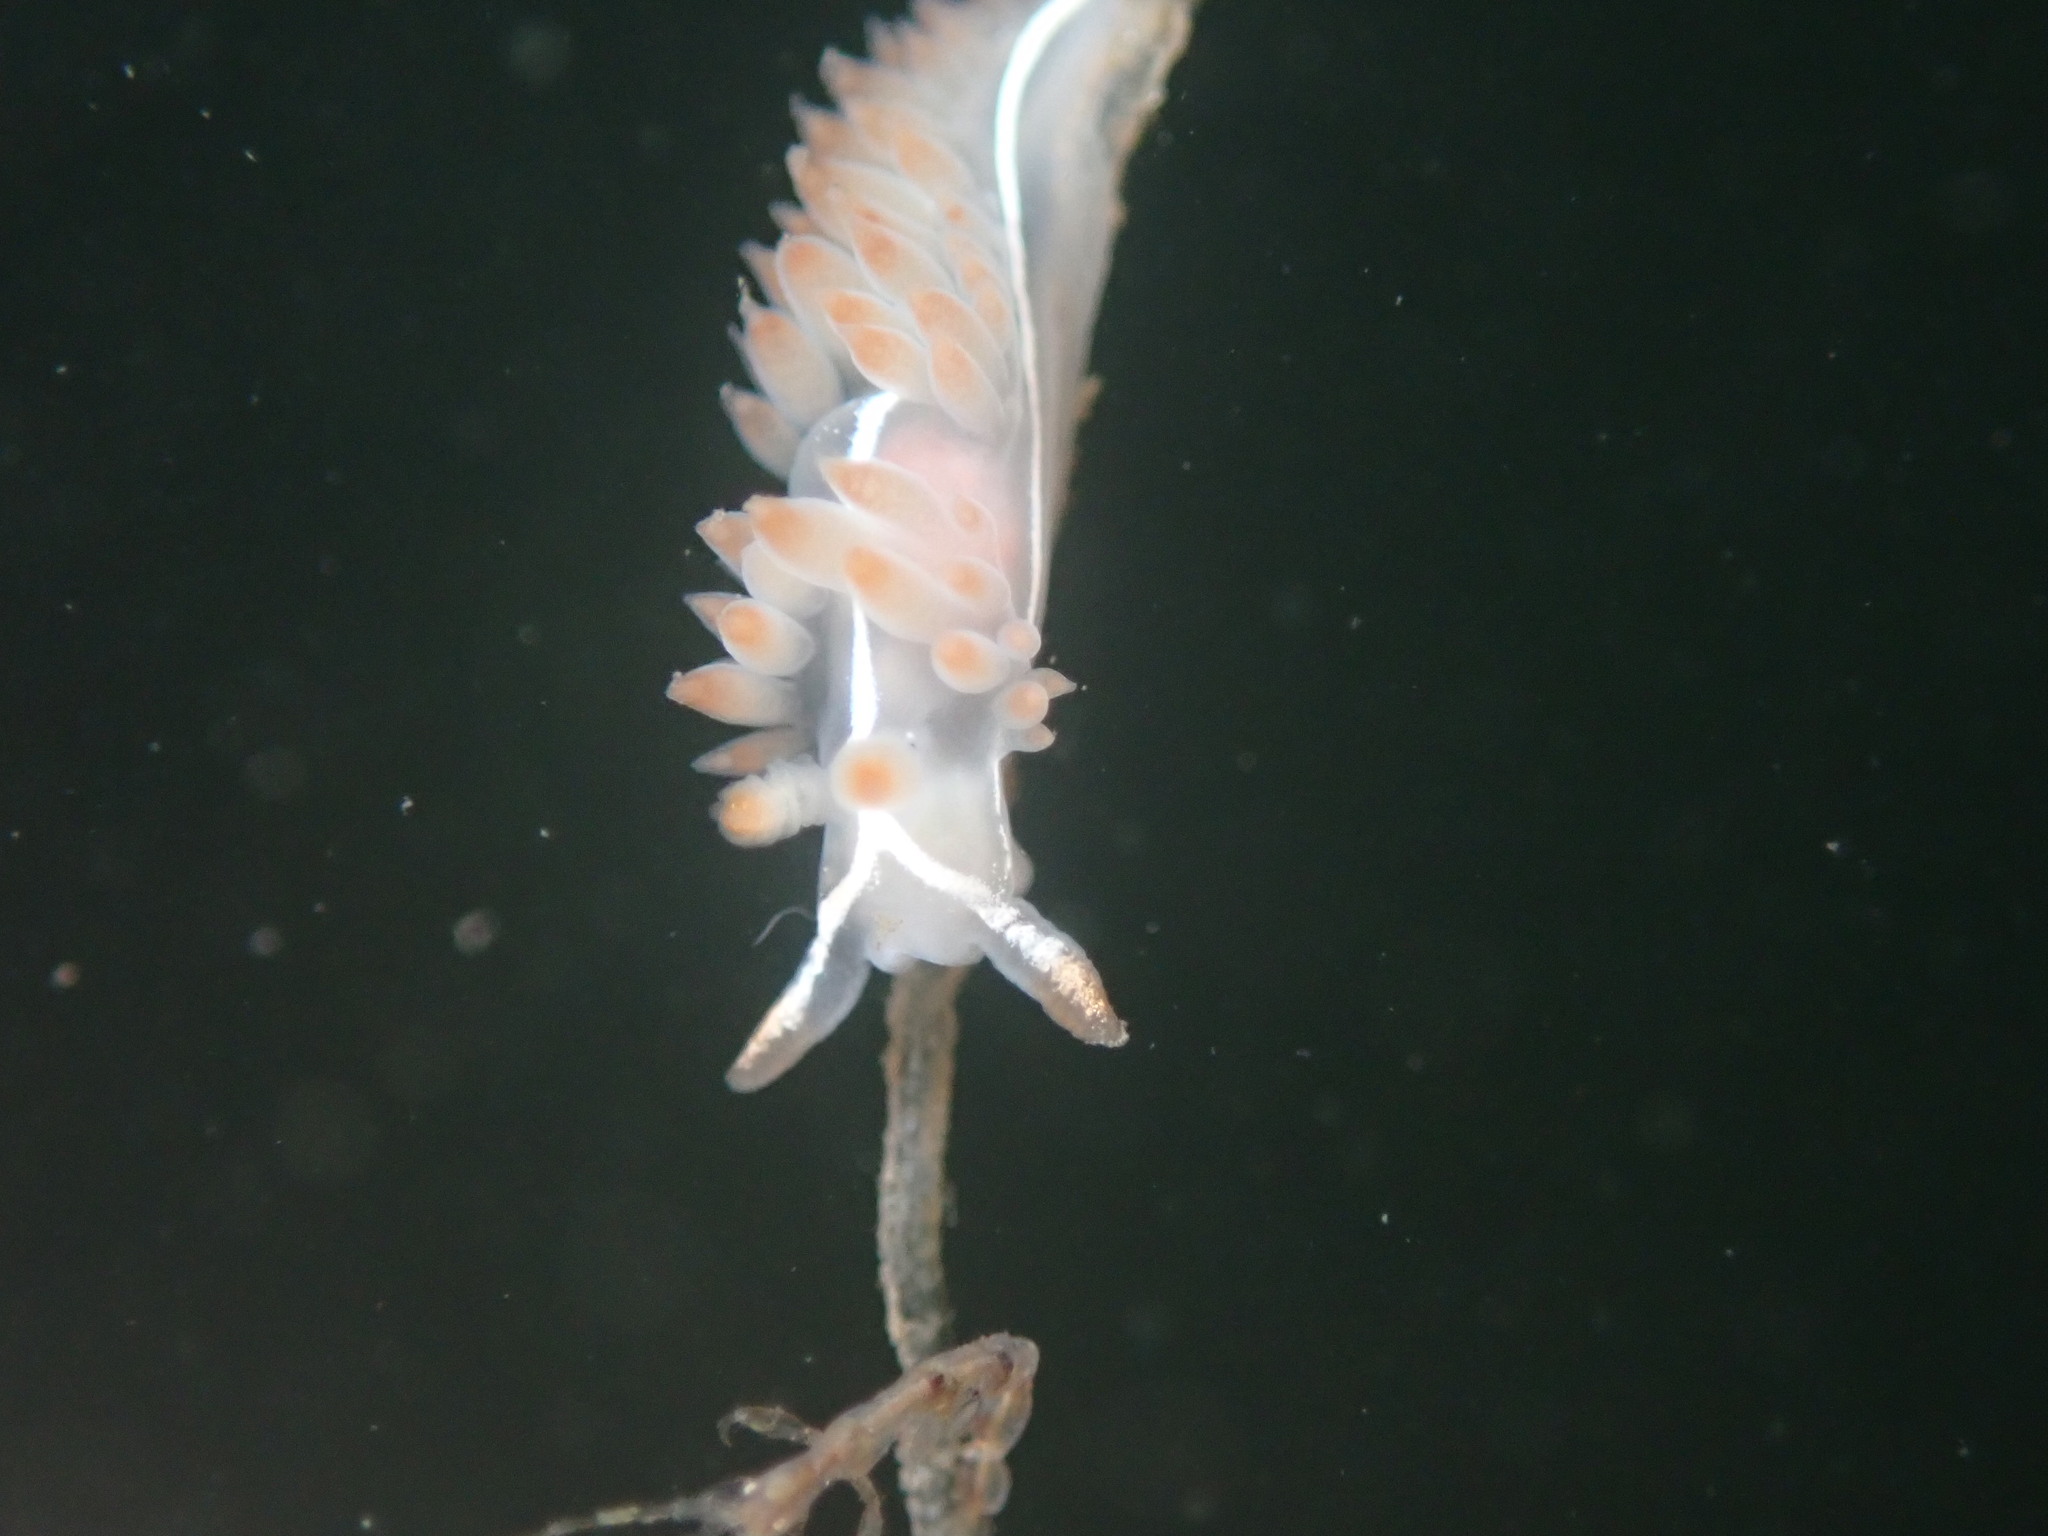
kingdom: Animalia
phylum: Mollusca
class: Gastropoda
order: Nudibranchia
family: Coryphellidae
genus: Coryphella
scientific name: Coryphella trilineata
